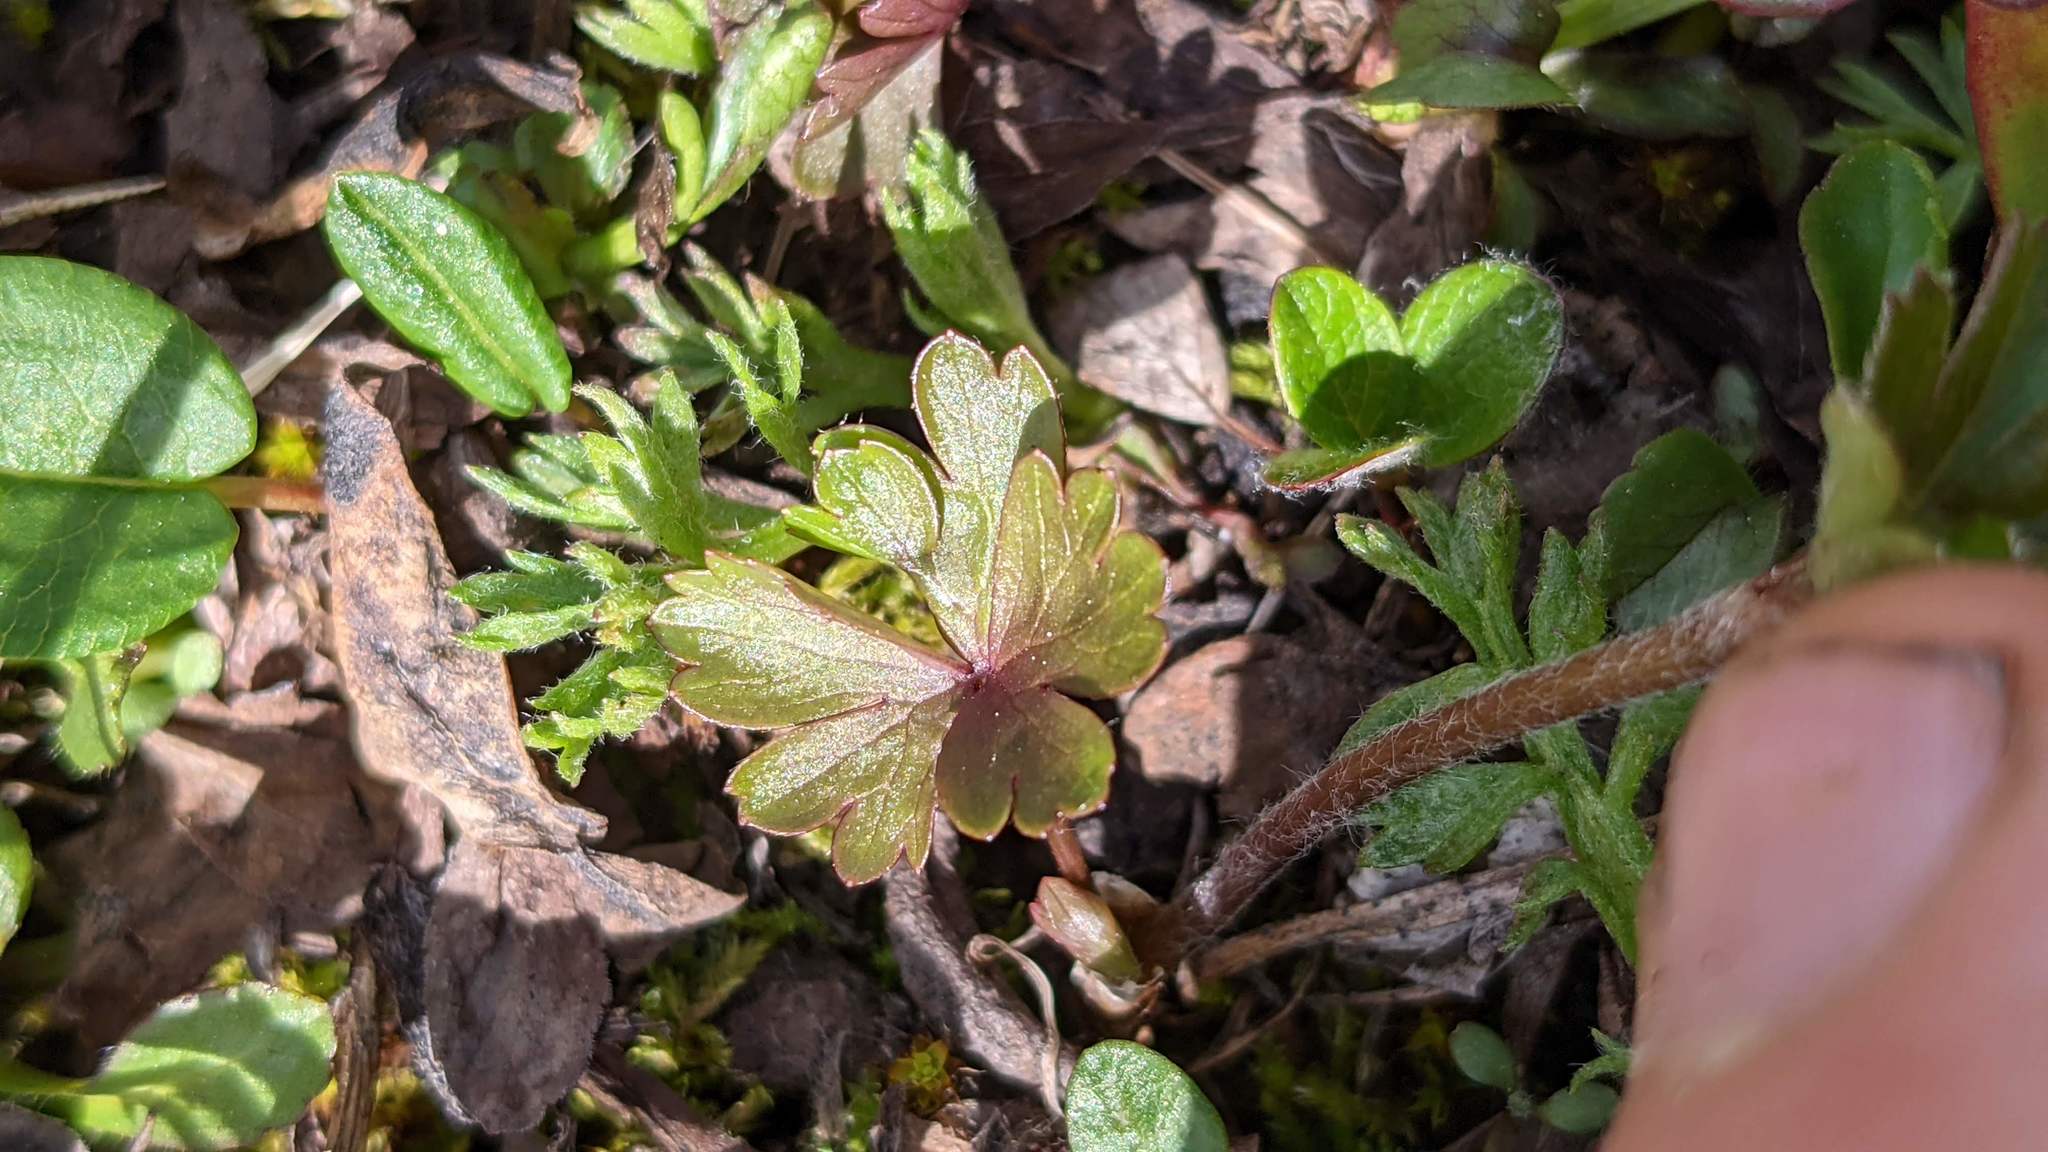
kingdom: Plantae
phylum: Tracheophyta
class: Magnoliopsida
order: Ranunculales
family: Ranunculaceae
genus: Anemone
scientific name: Anemone parviflora
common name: Northern anemone
